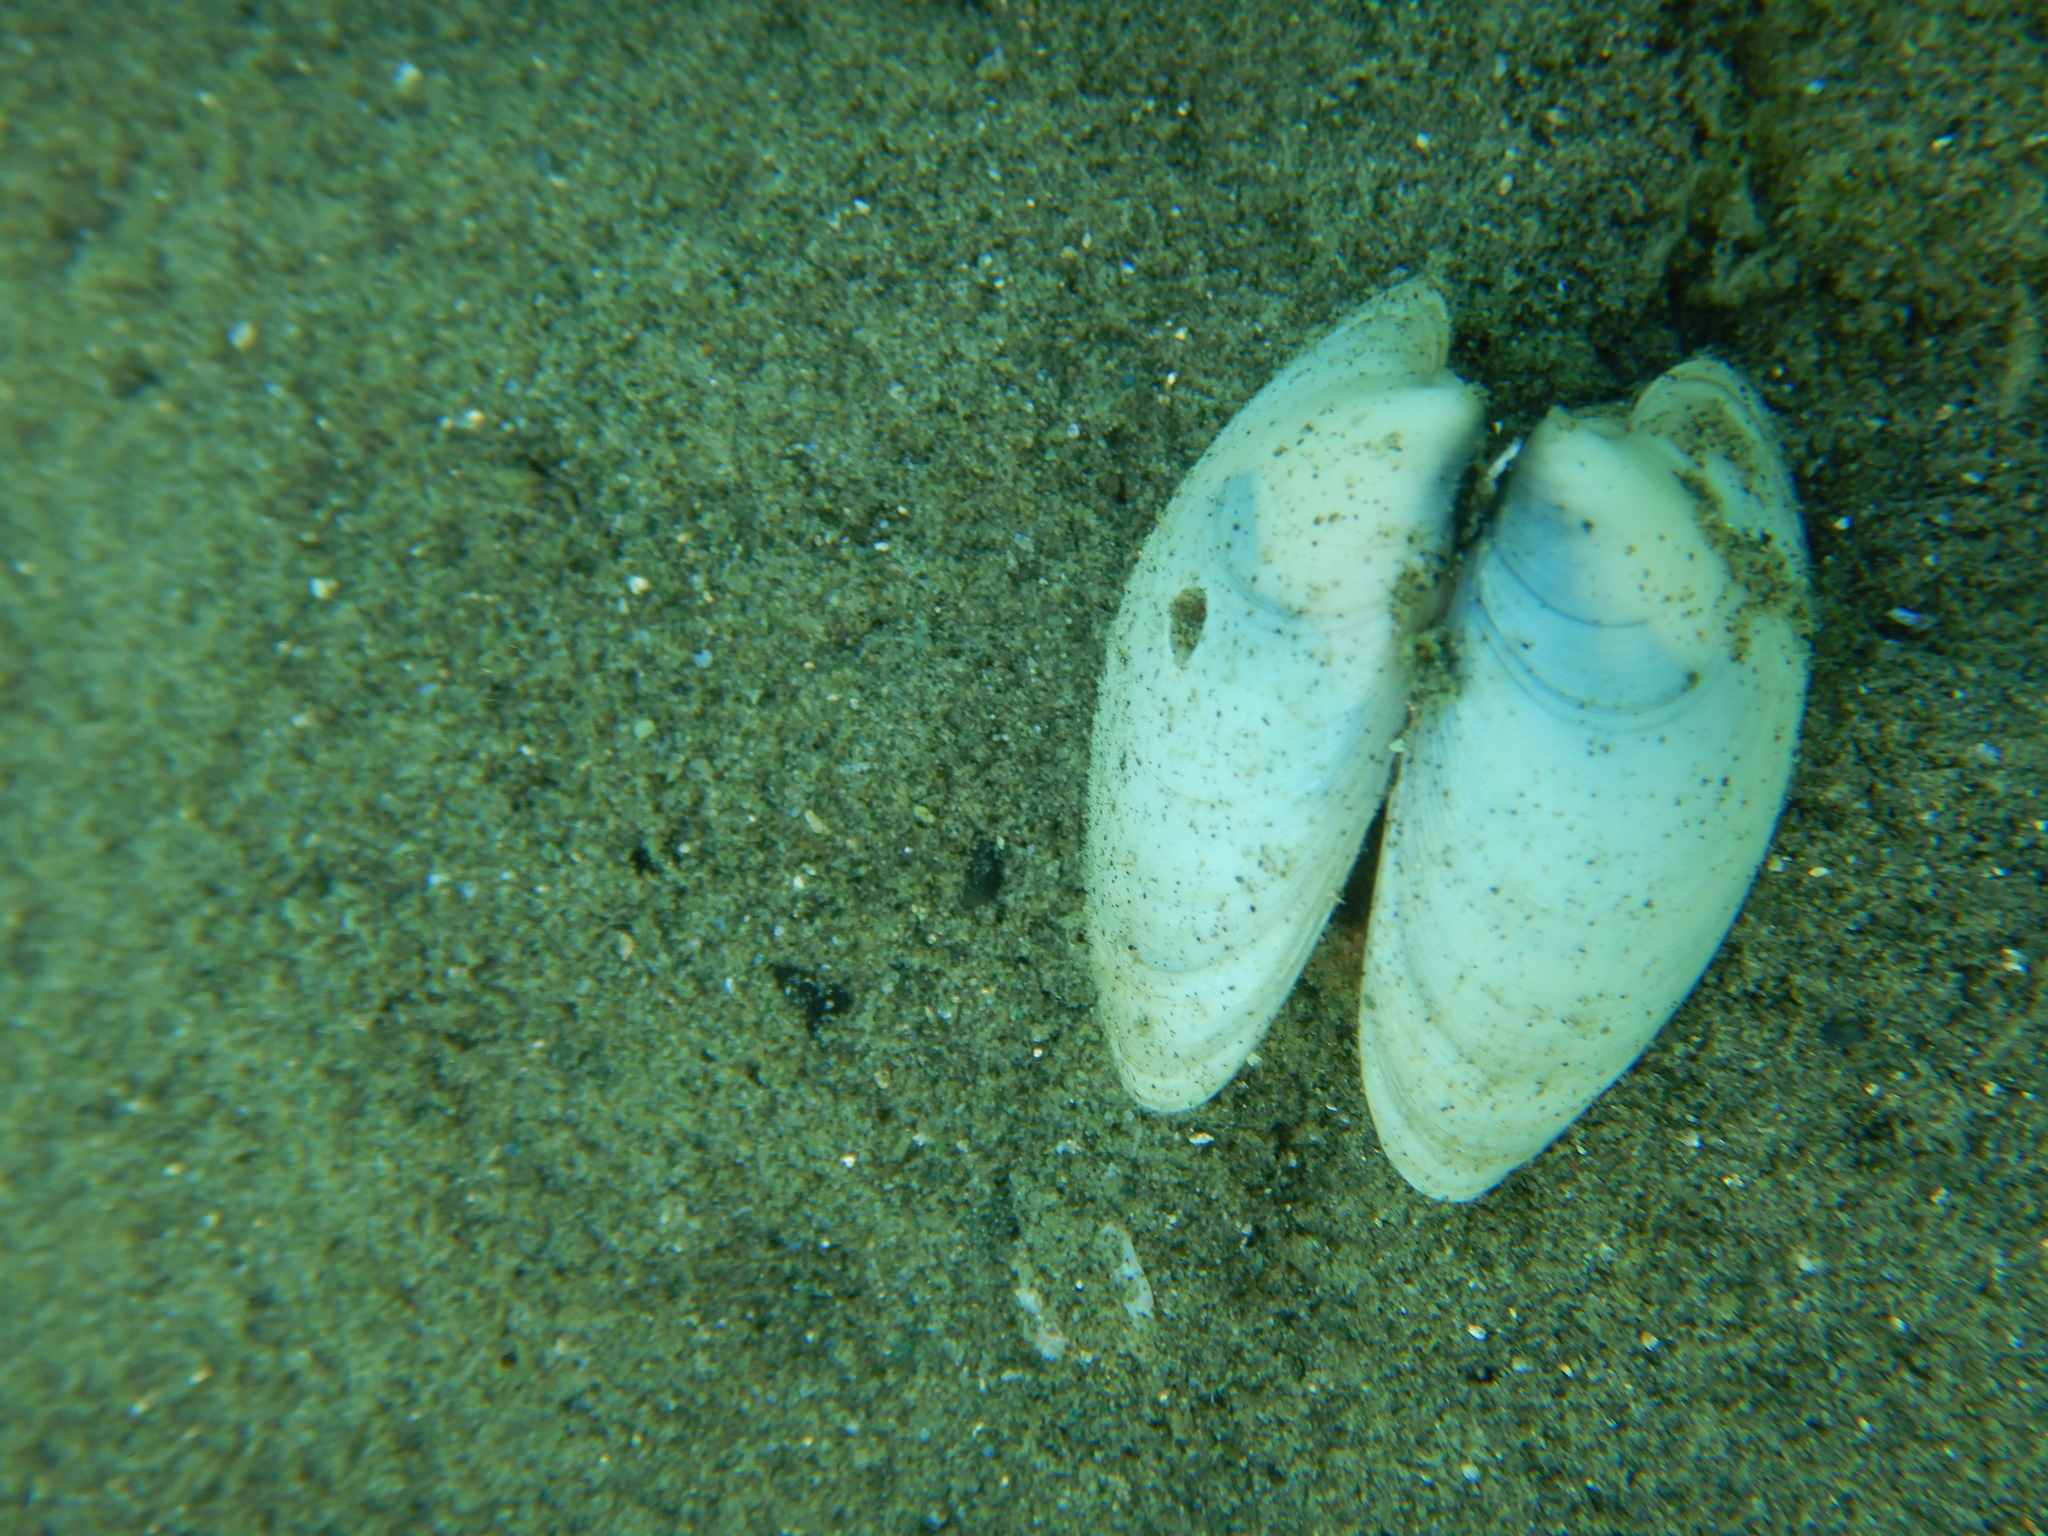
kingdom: Animalia
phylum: Mollusca
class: Bivalvia
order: Venerida
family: Veneridae
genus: Dosinia
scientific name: Dosinia lupinus
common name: Smooth artemis
